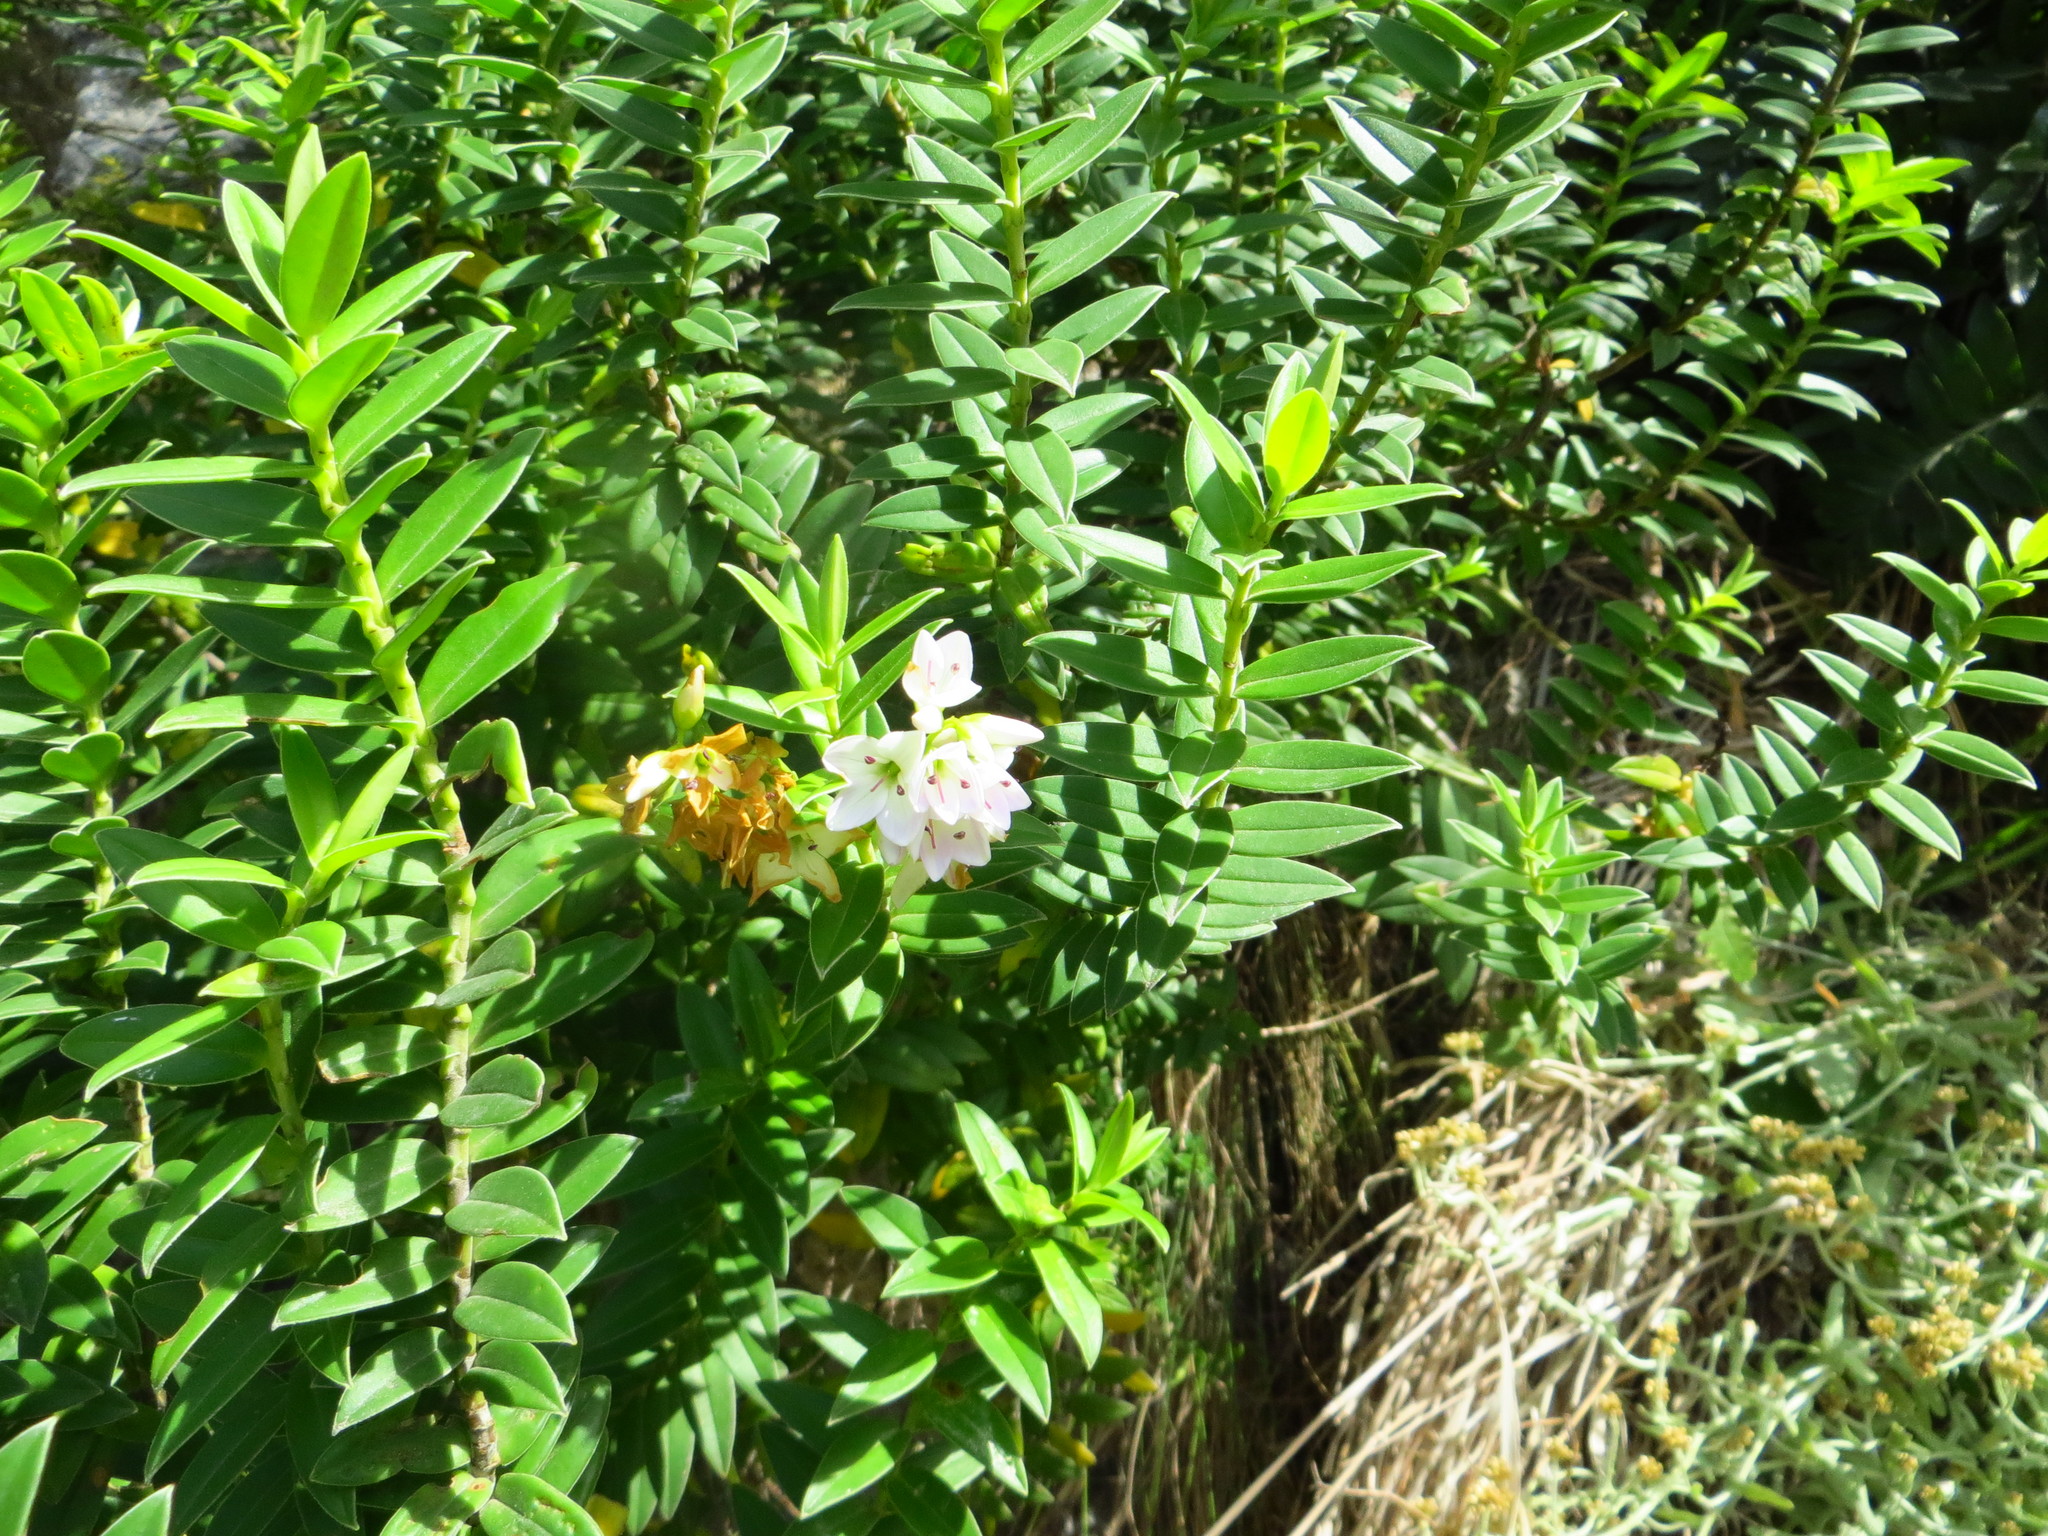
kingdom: Plantae
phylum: Tracheophyta
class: Magnoliopsida
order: Lamiales
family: Plantaginaceae
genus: Veronica
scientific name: Veronica elliptica
